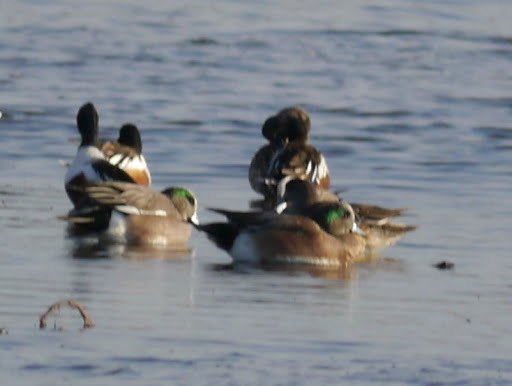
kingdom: Animalia
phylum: Chordata
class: Aves
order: Anseriformes
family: Anatidae
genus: Mareca
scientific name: Mareca americana
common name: American wigeon
